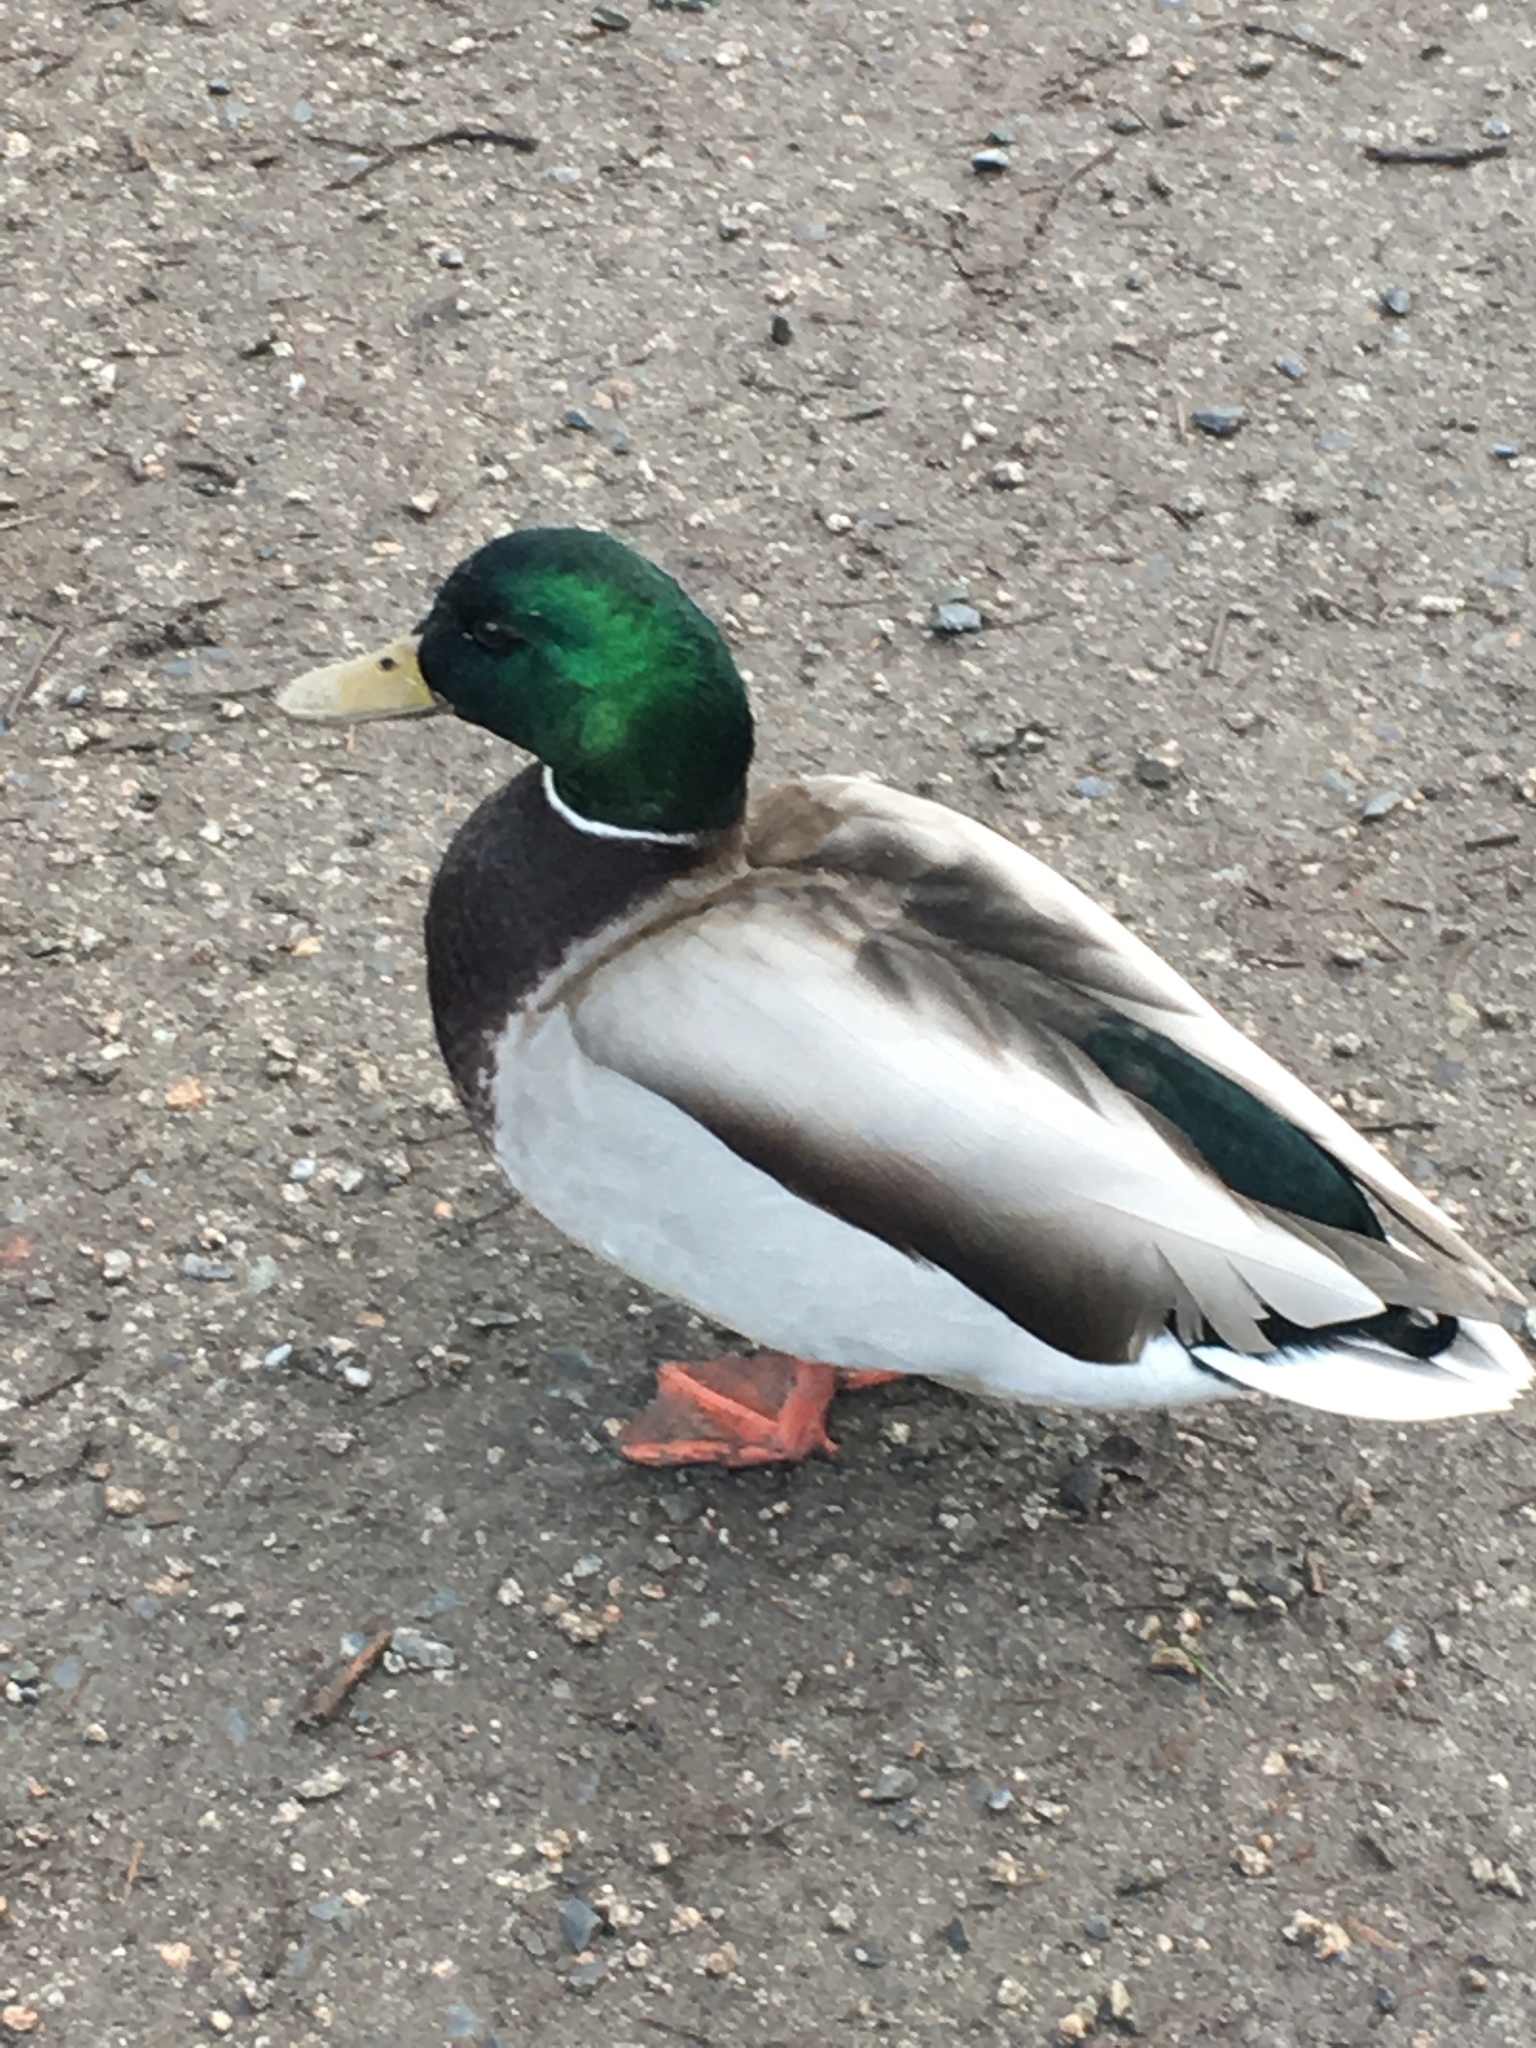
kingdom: Animalia
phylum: Chordata
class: Aves
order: Anseriformes
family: Anatidae
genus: Anas
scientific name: Anas platyrhynchos
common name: Mallard
